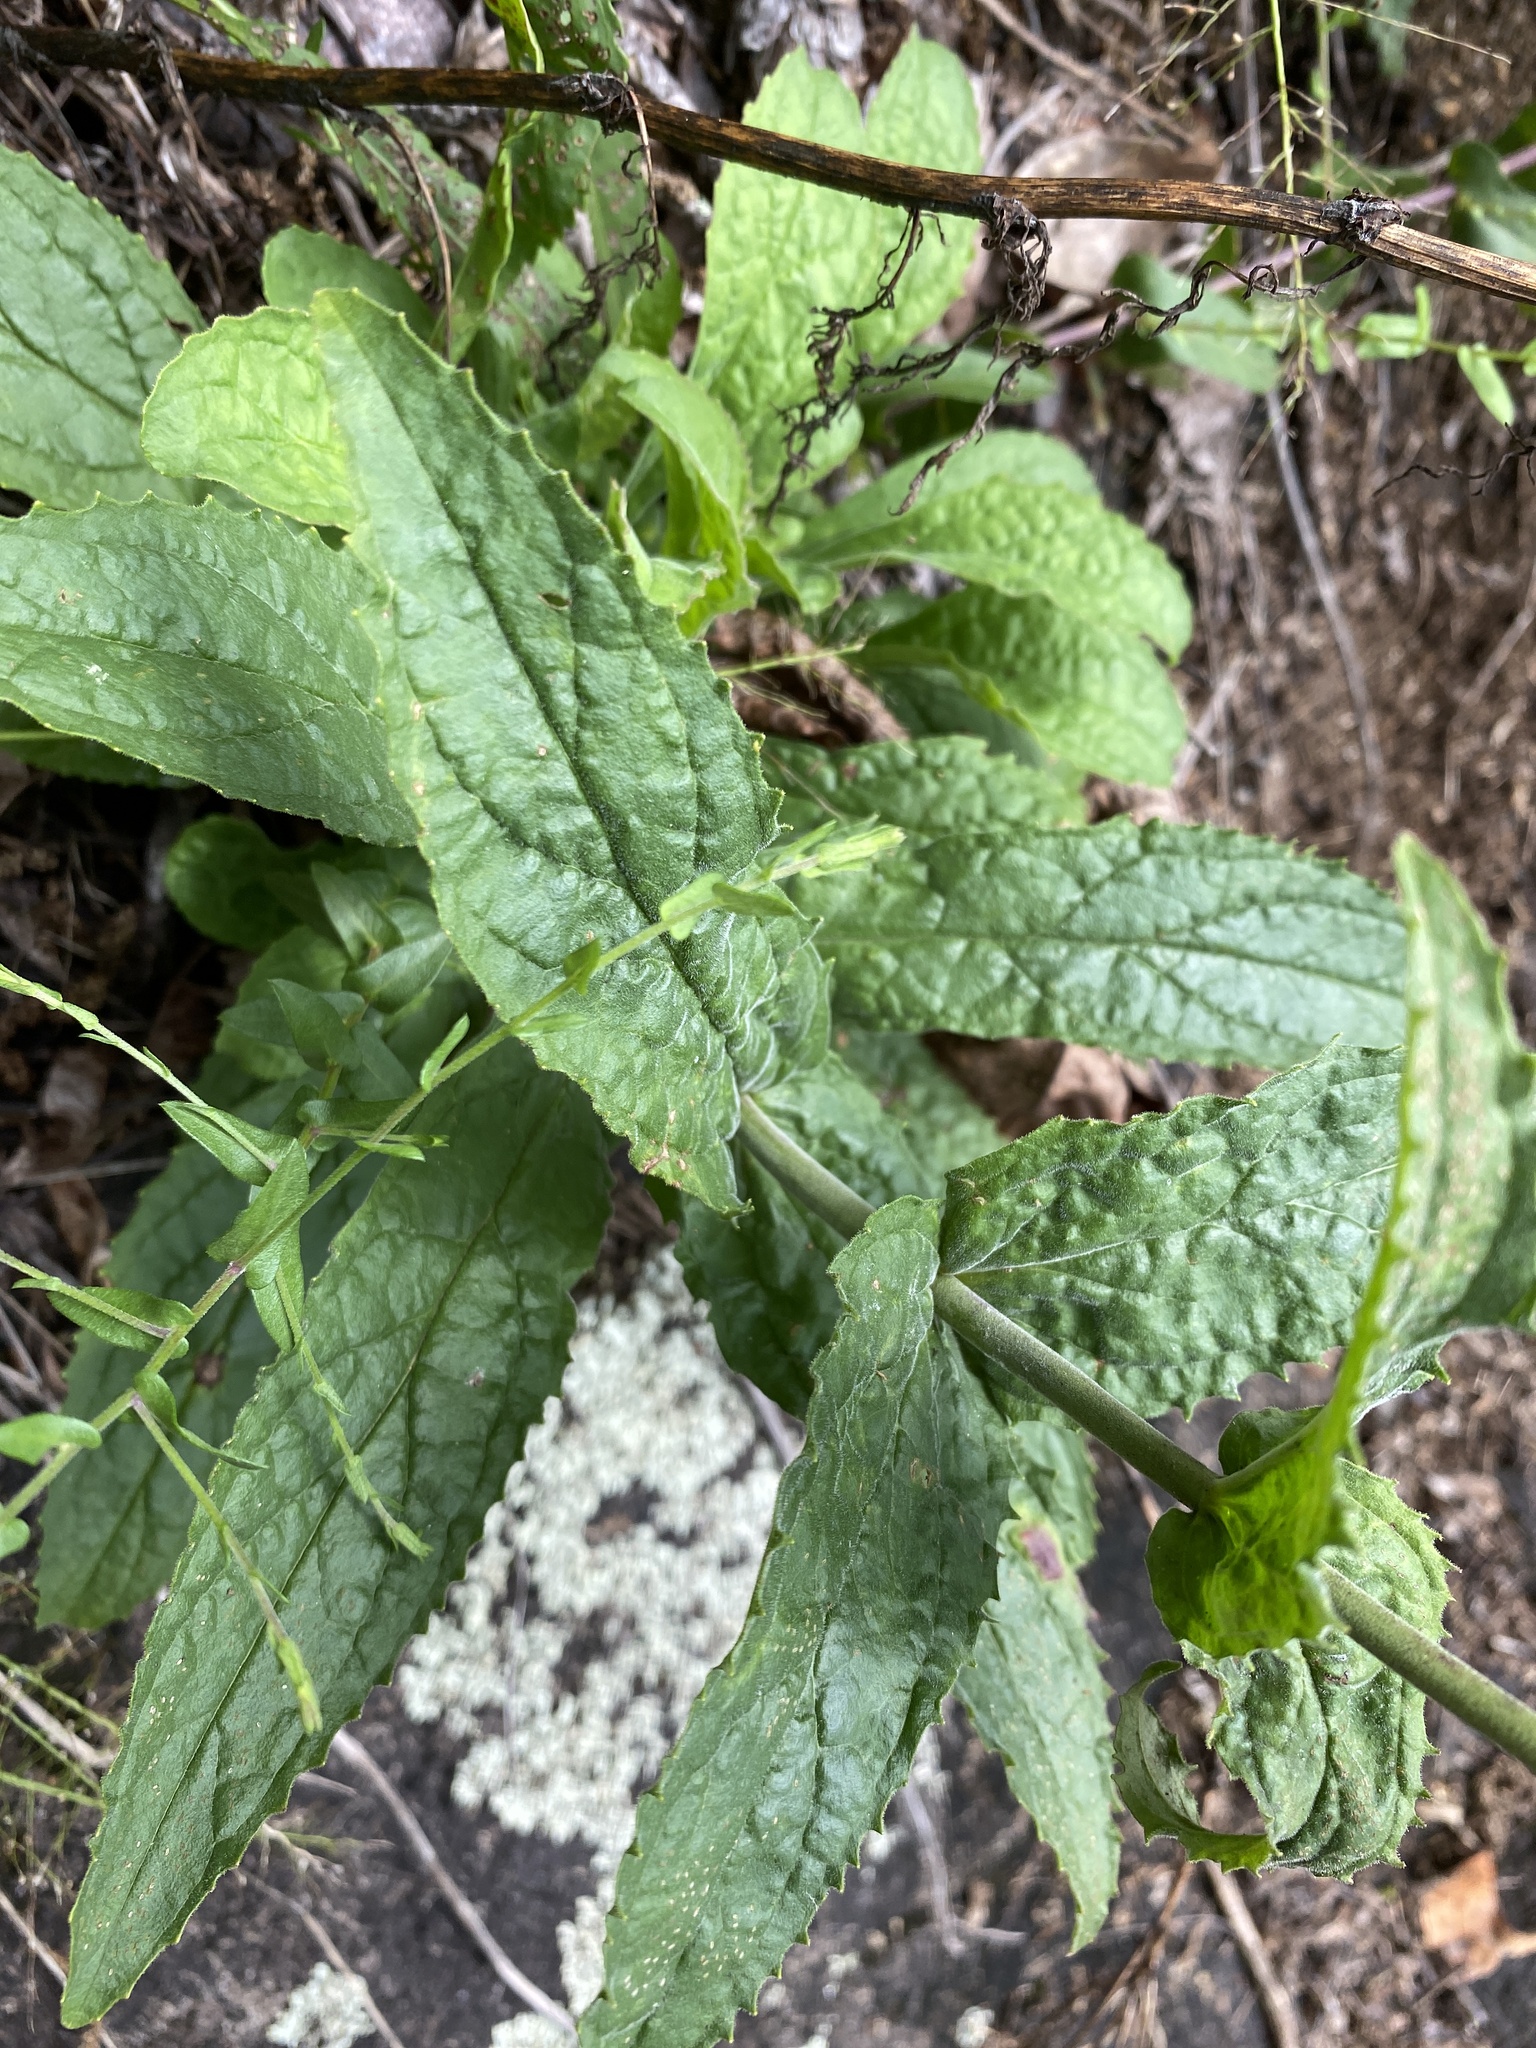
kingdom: Plantae
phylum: Tracheophyta
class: Magnoliopsida
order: Lamiales
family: Plantaginaceae
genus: Penstemon
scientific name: Penstemon canescens
